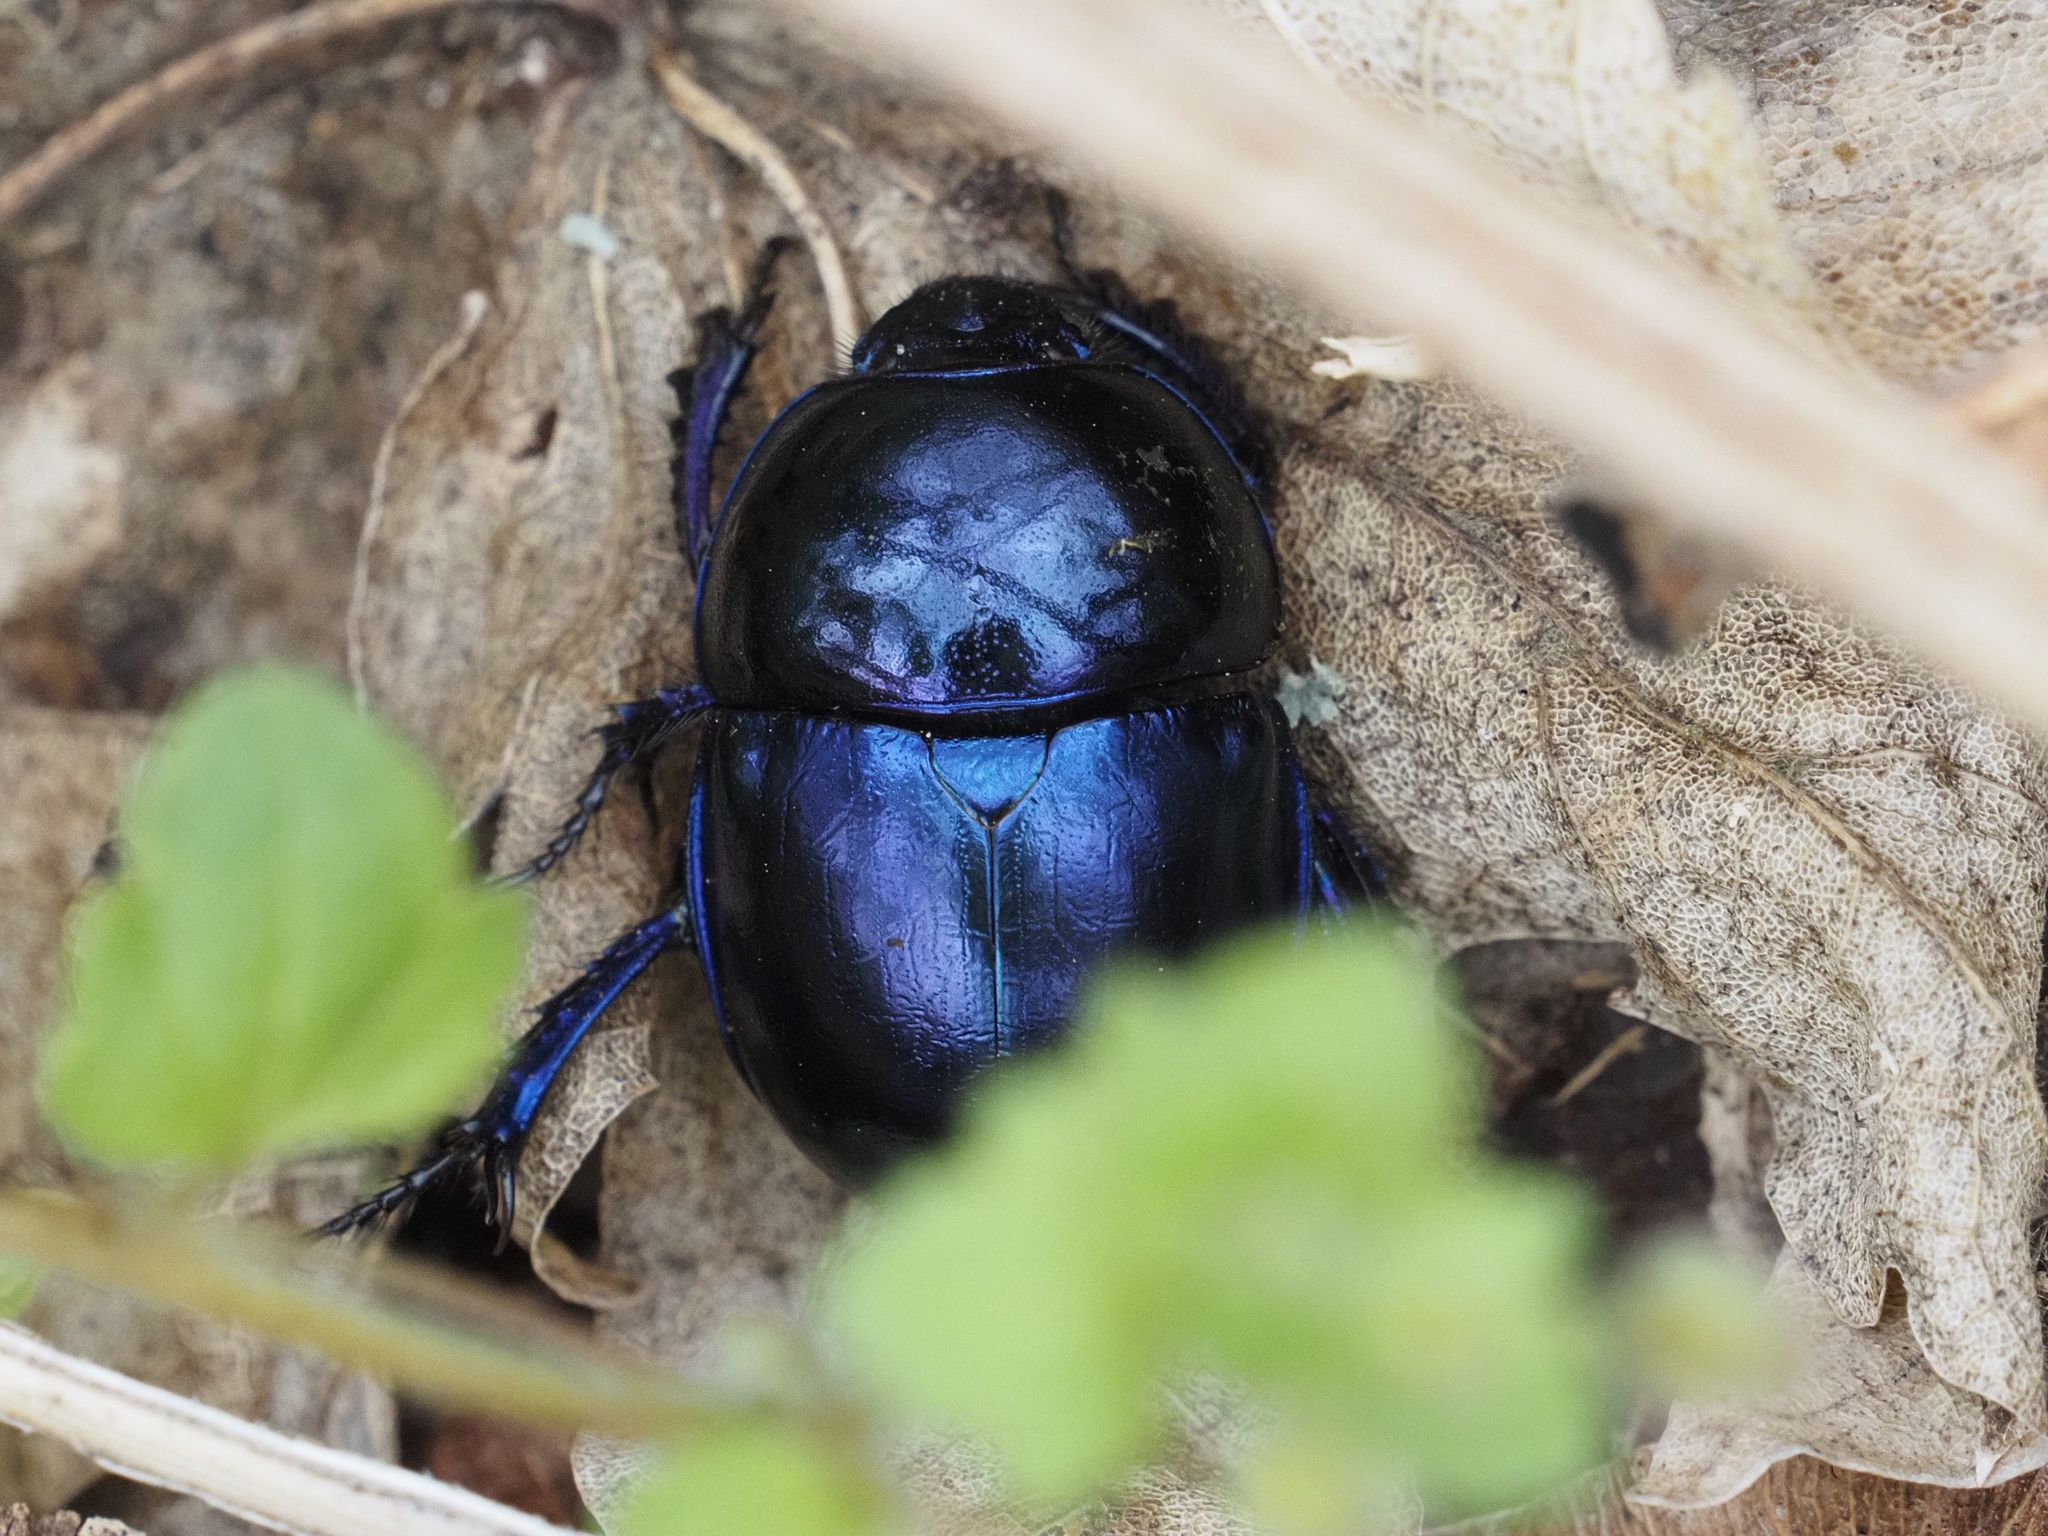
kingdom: Animalia
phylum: Arthropoda
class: Insecta
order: Coleoptera
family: Geotrupidae
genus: Trypocopris
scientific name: Trypocopris vernalis
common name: Spring dumbledor
